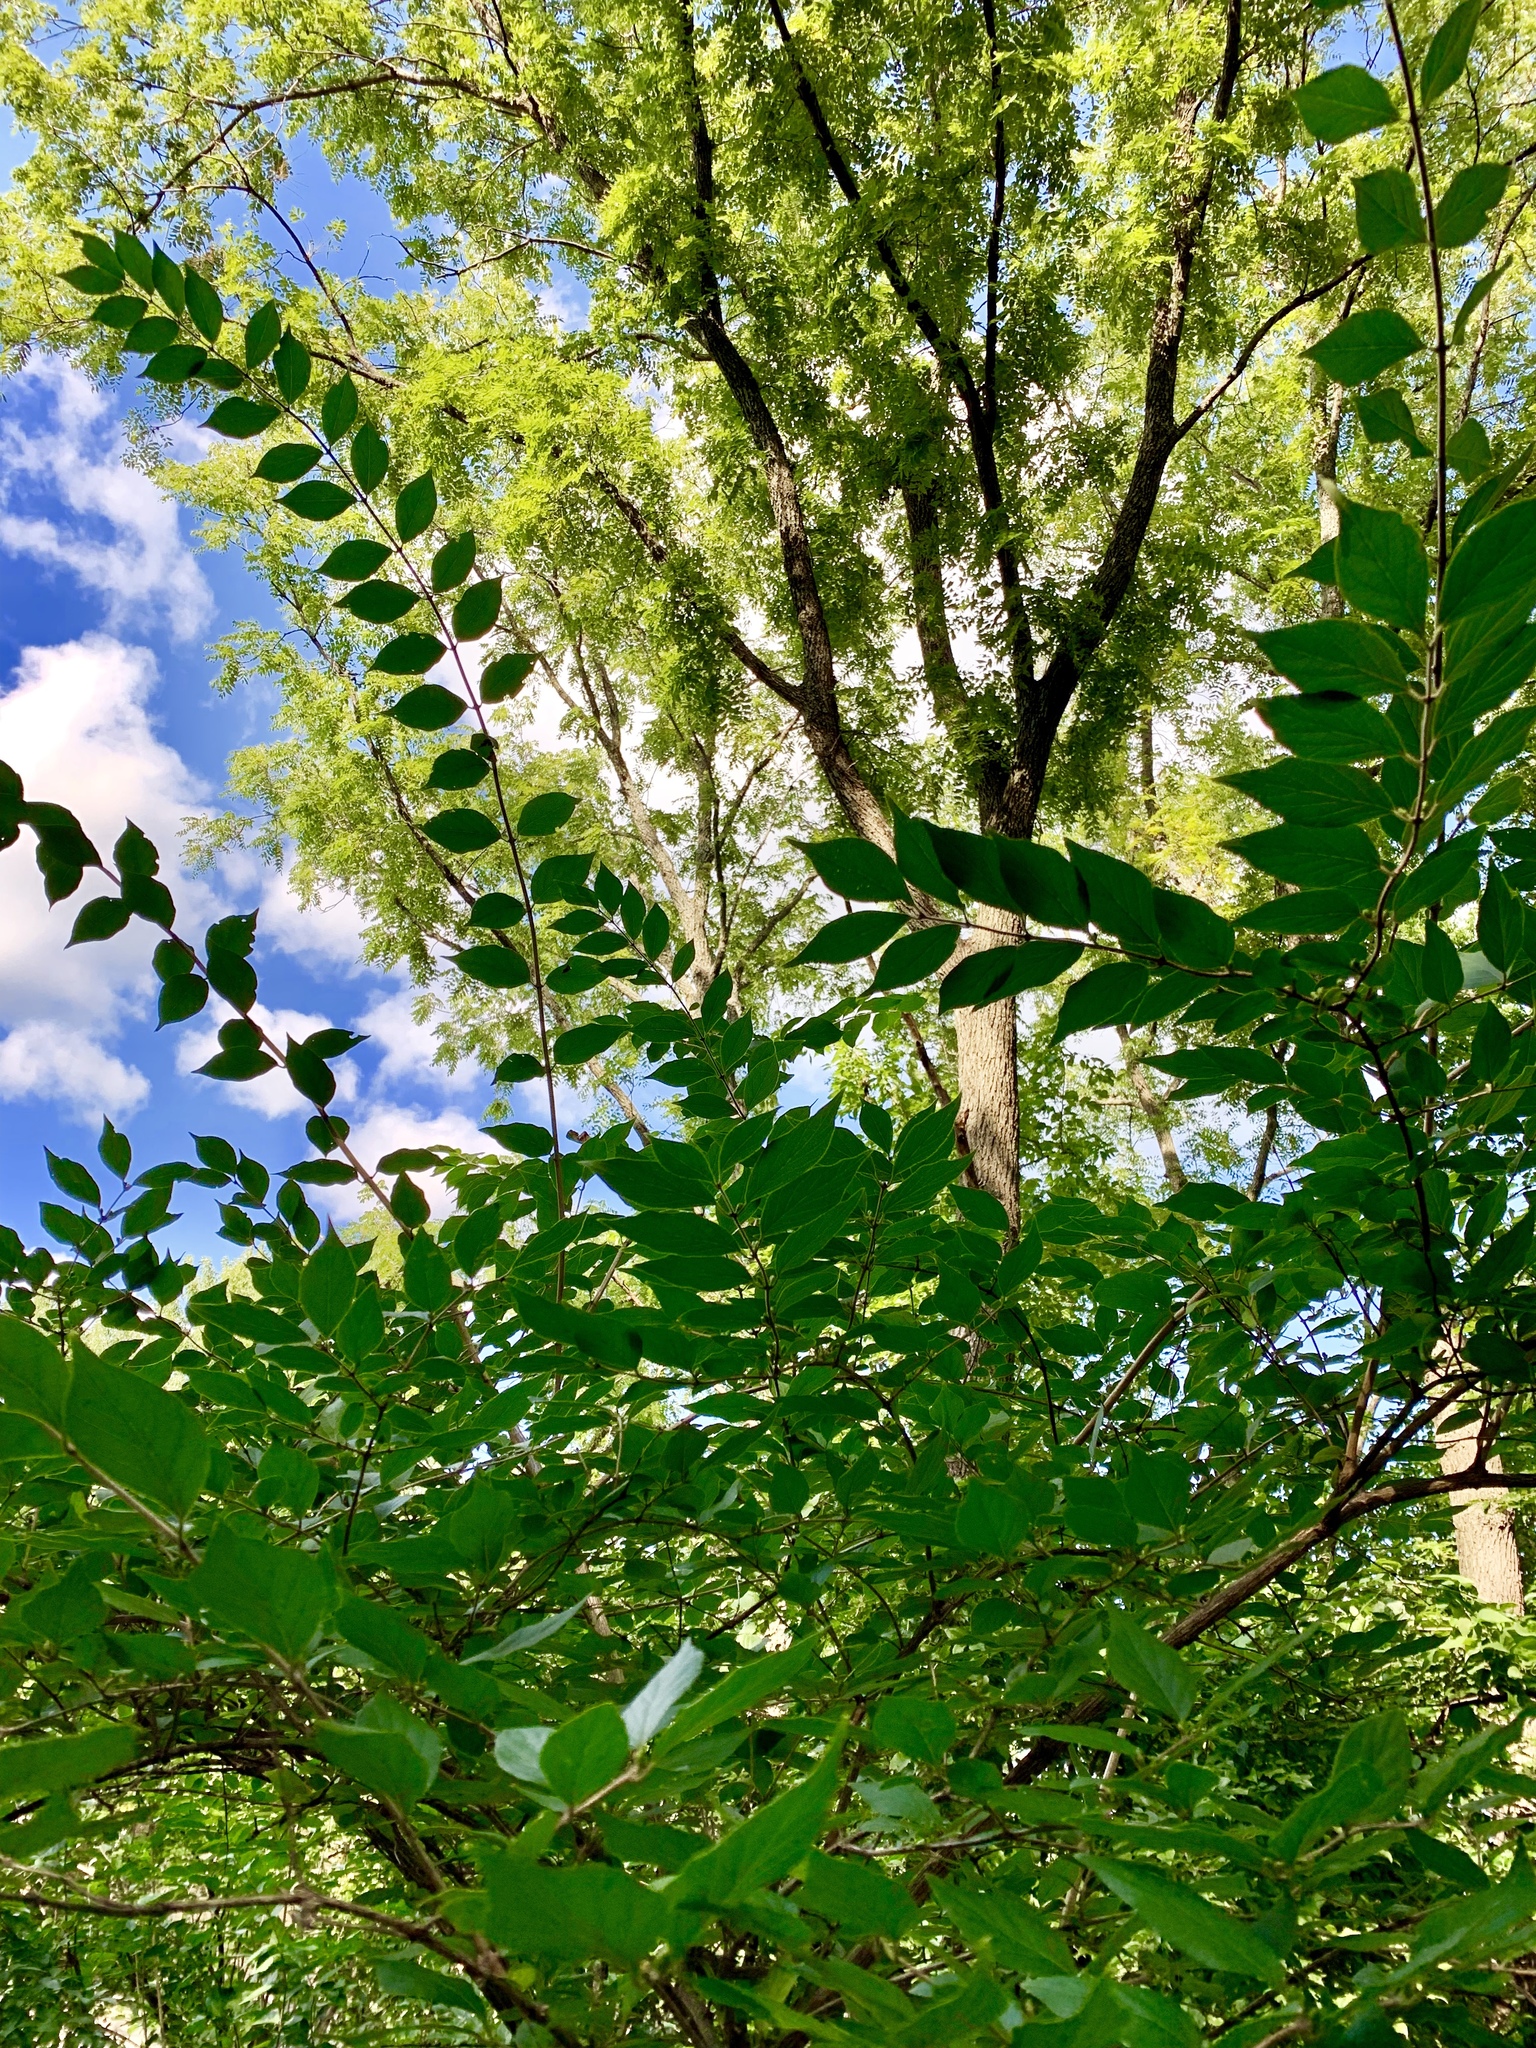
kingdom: Plantae
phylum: Tracheophyta
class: Magnoliopsida
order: Dipsacales
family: Caprifoliaceae
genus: Lonicera
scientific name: Lonicera maackii
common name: Amur honeysuckle
